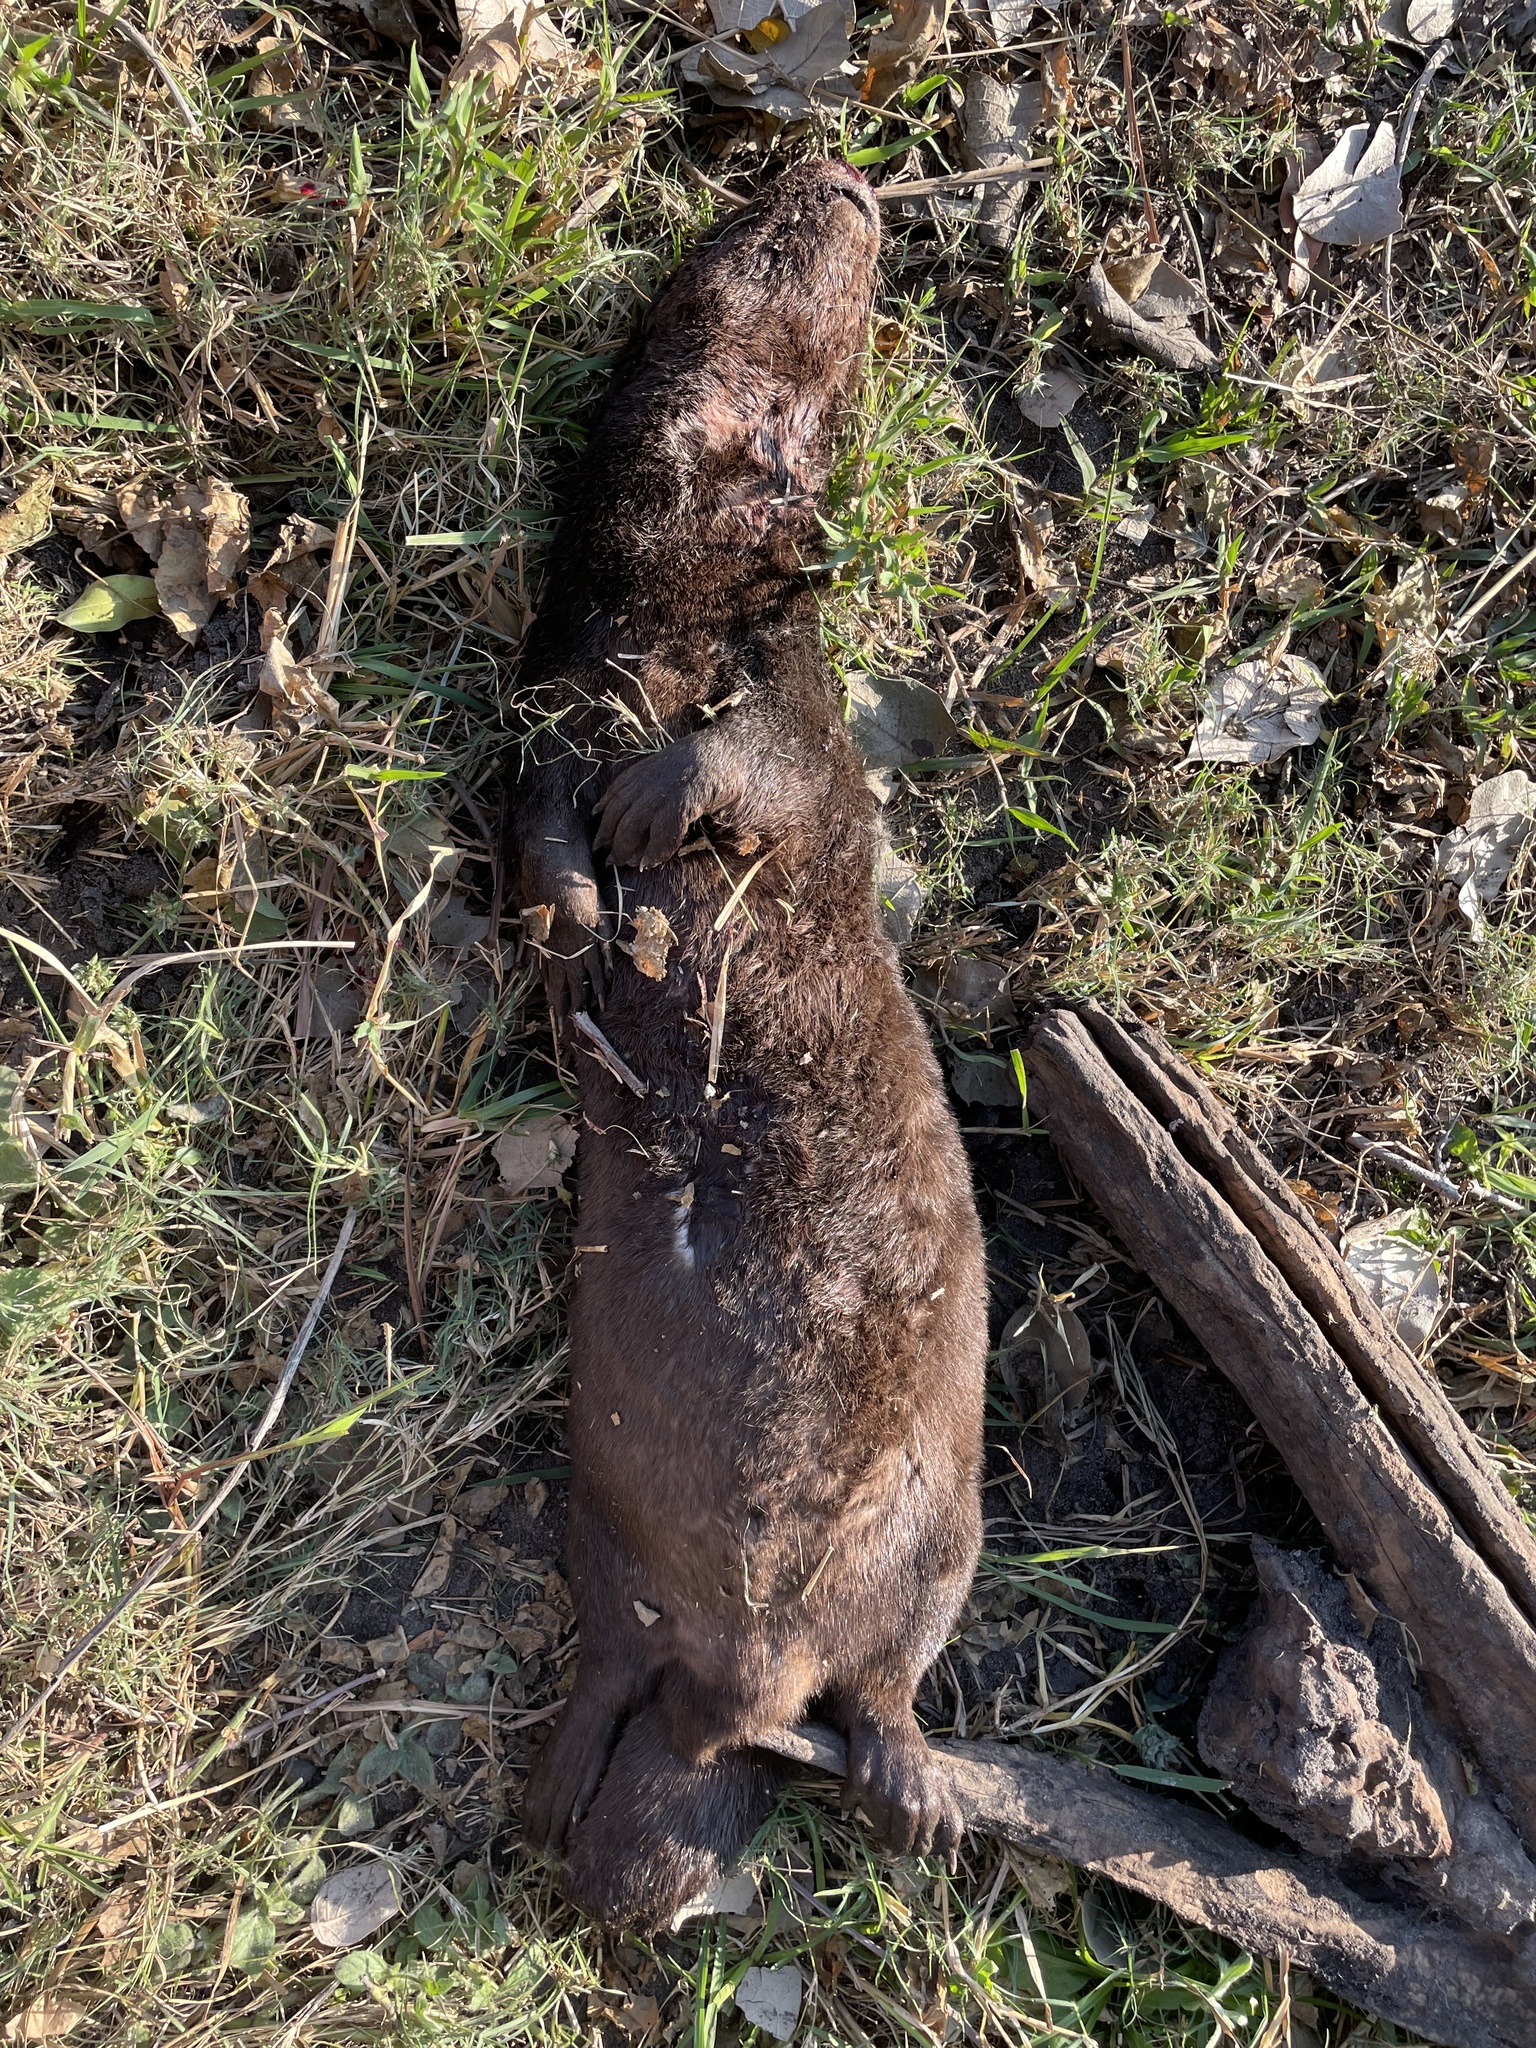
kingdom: Animalia
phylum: Chordata
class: Mammalia
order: Carnivora
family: Mustelidae
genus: Hydrictis
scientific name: Hydrictis maculicollis
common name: Spotted-necked otter
